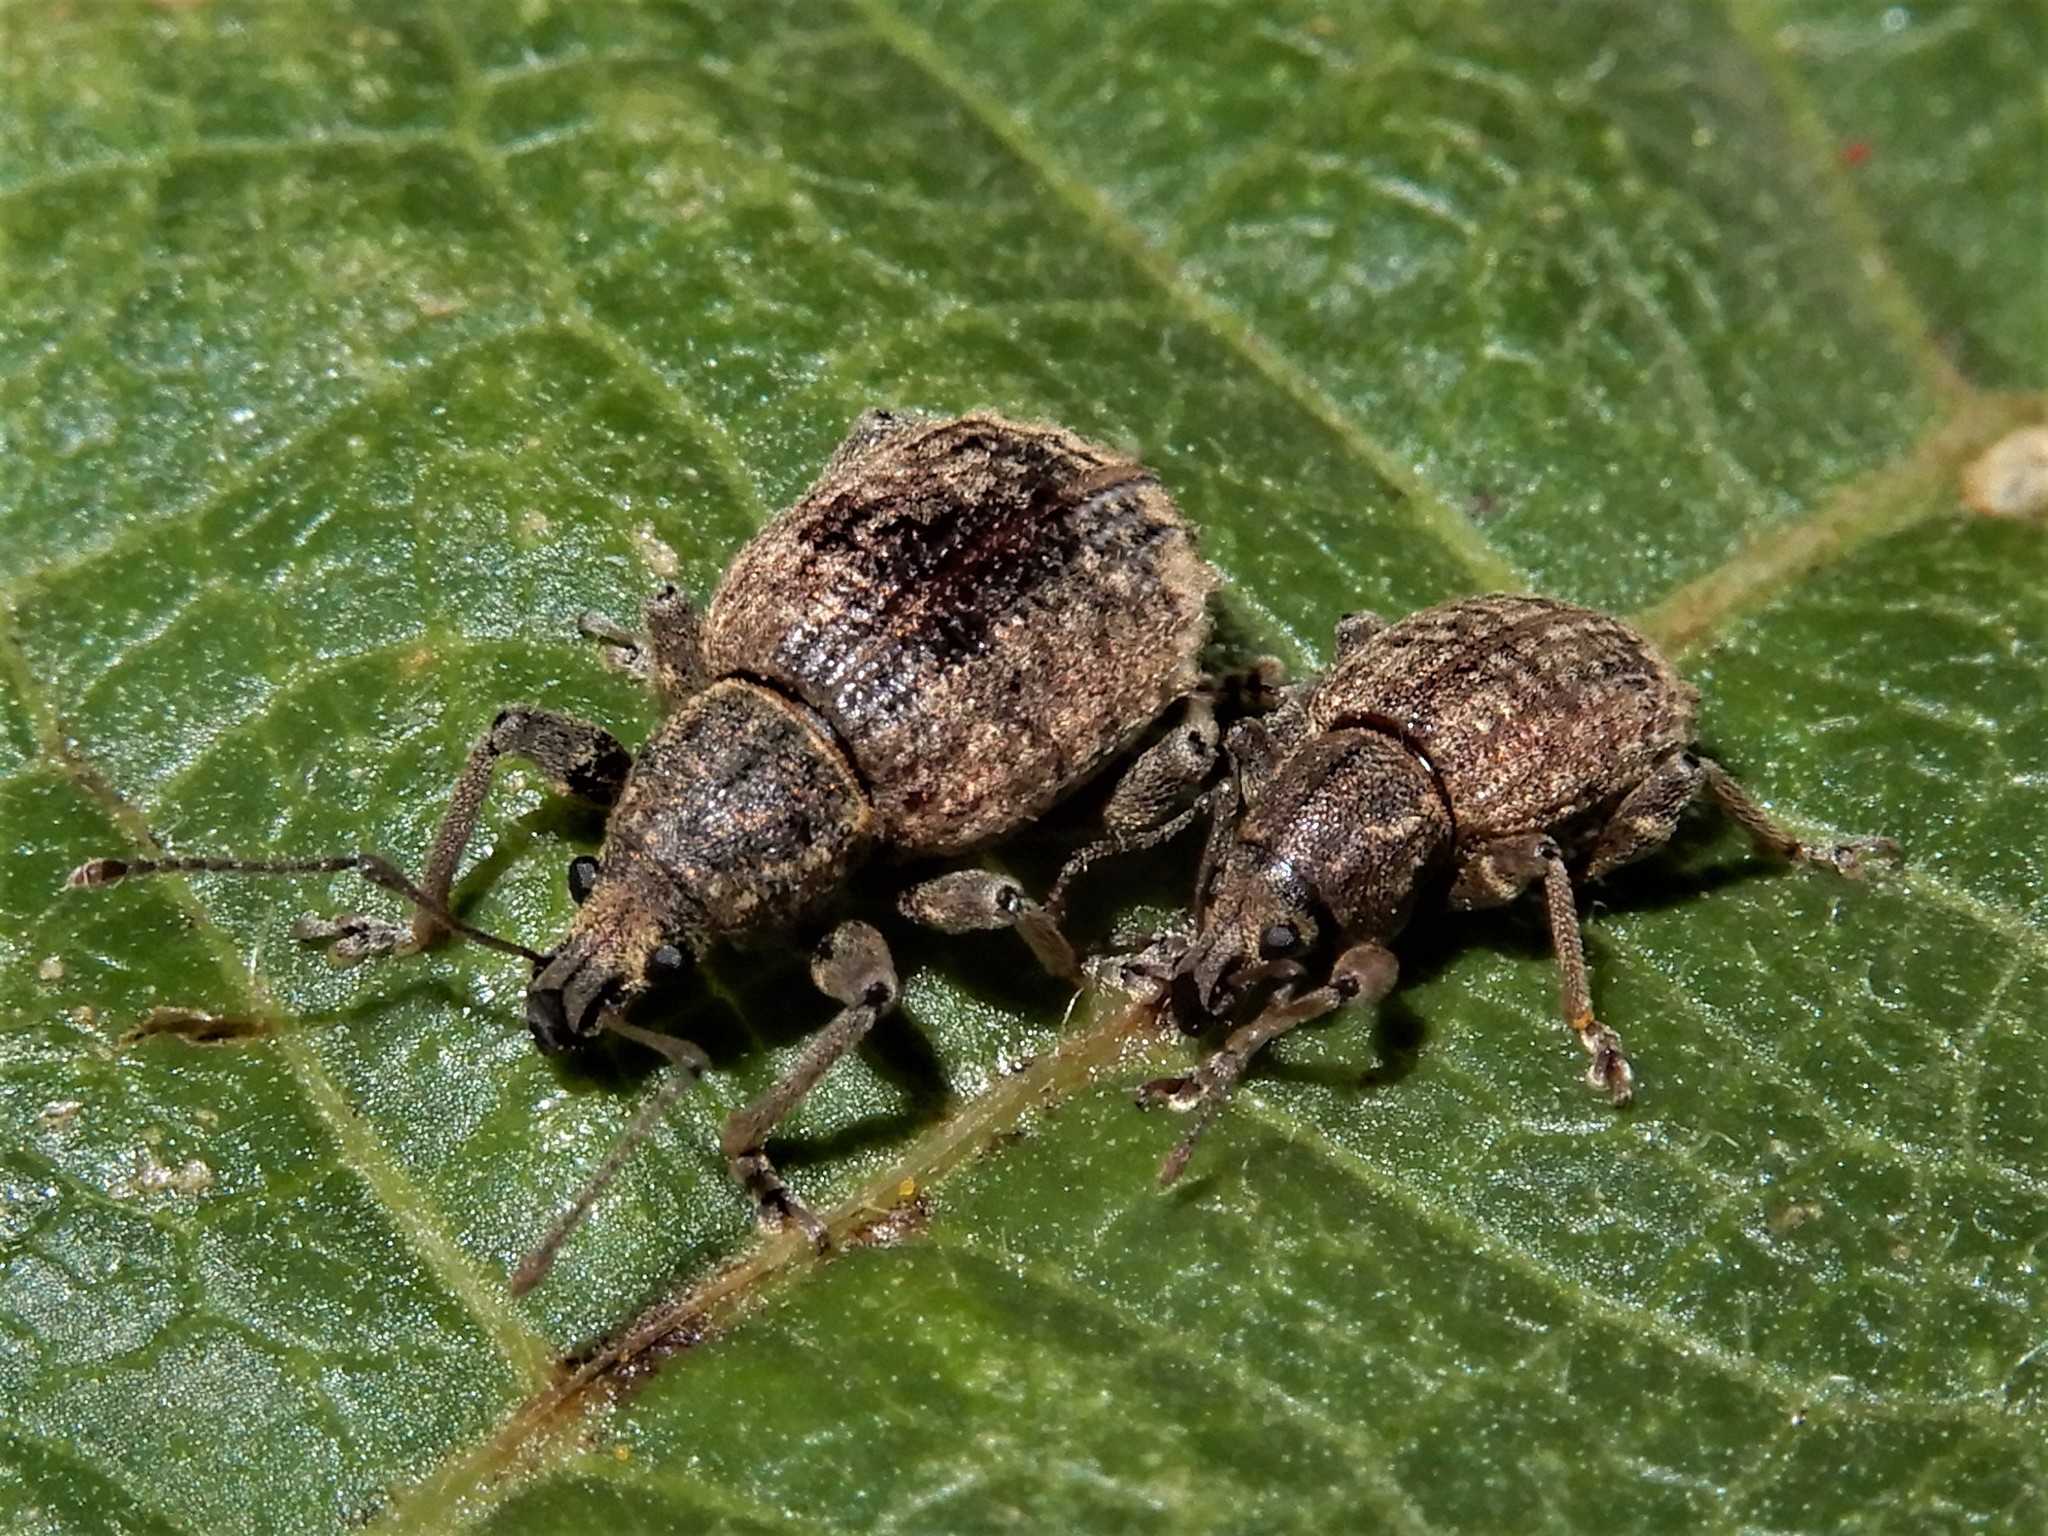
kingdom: Animalia
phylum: Arthropoda
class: Insecta
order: Coleoptera
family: Curculionidae
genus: Phlyctinus
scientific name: Phlyctinus callosus
